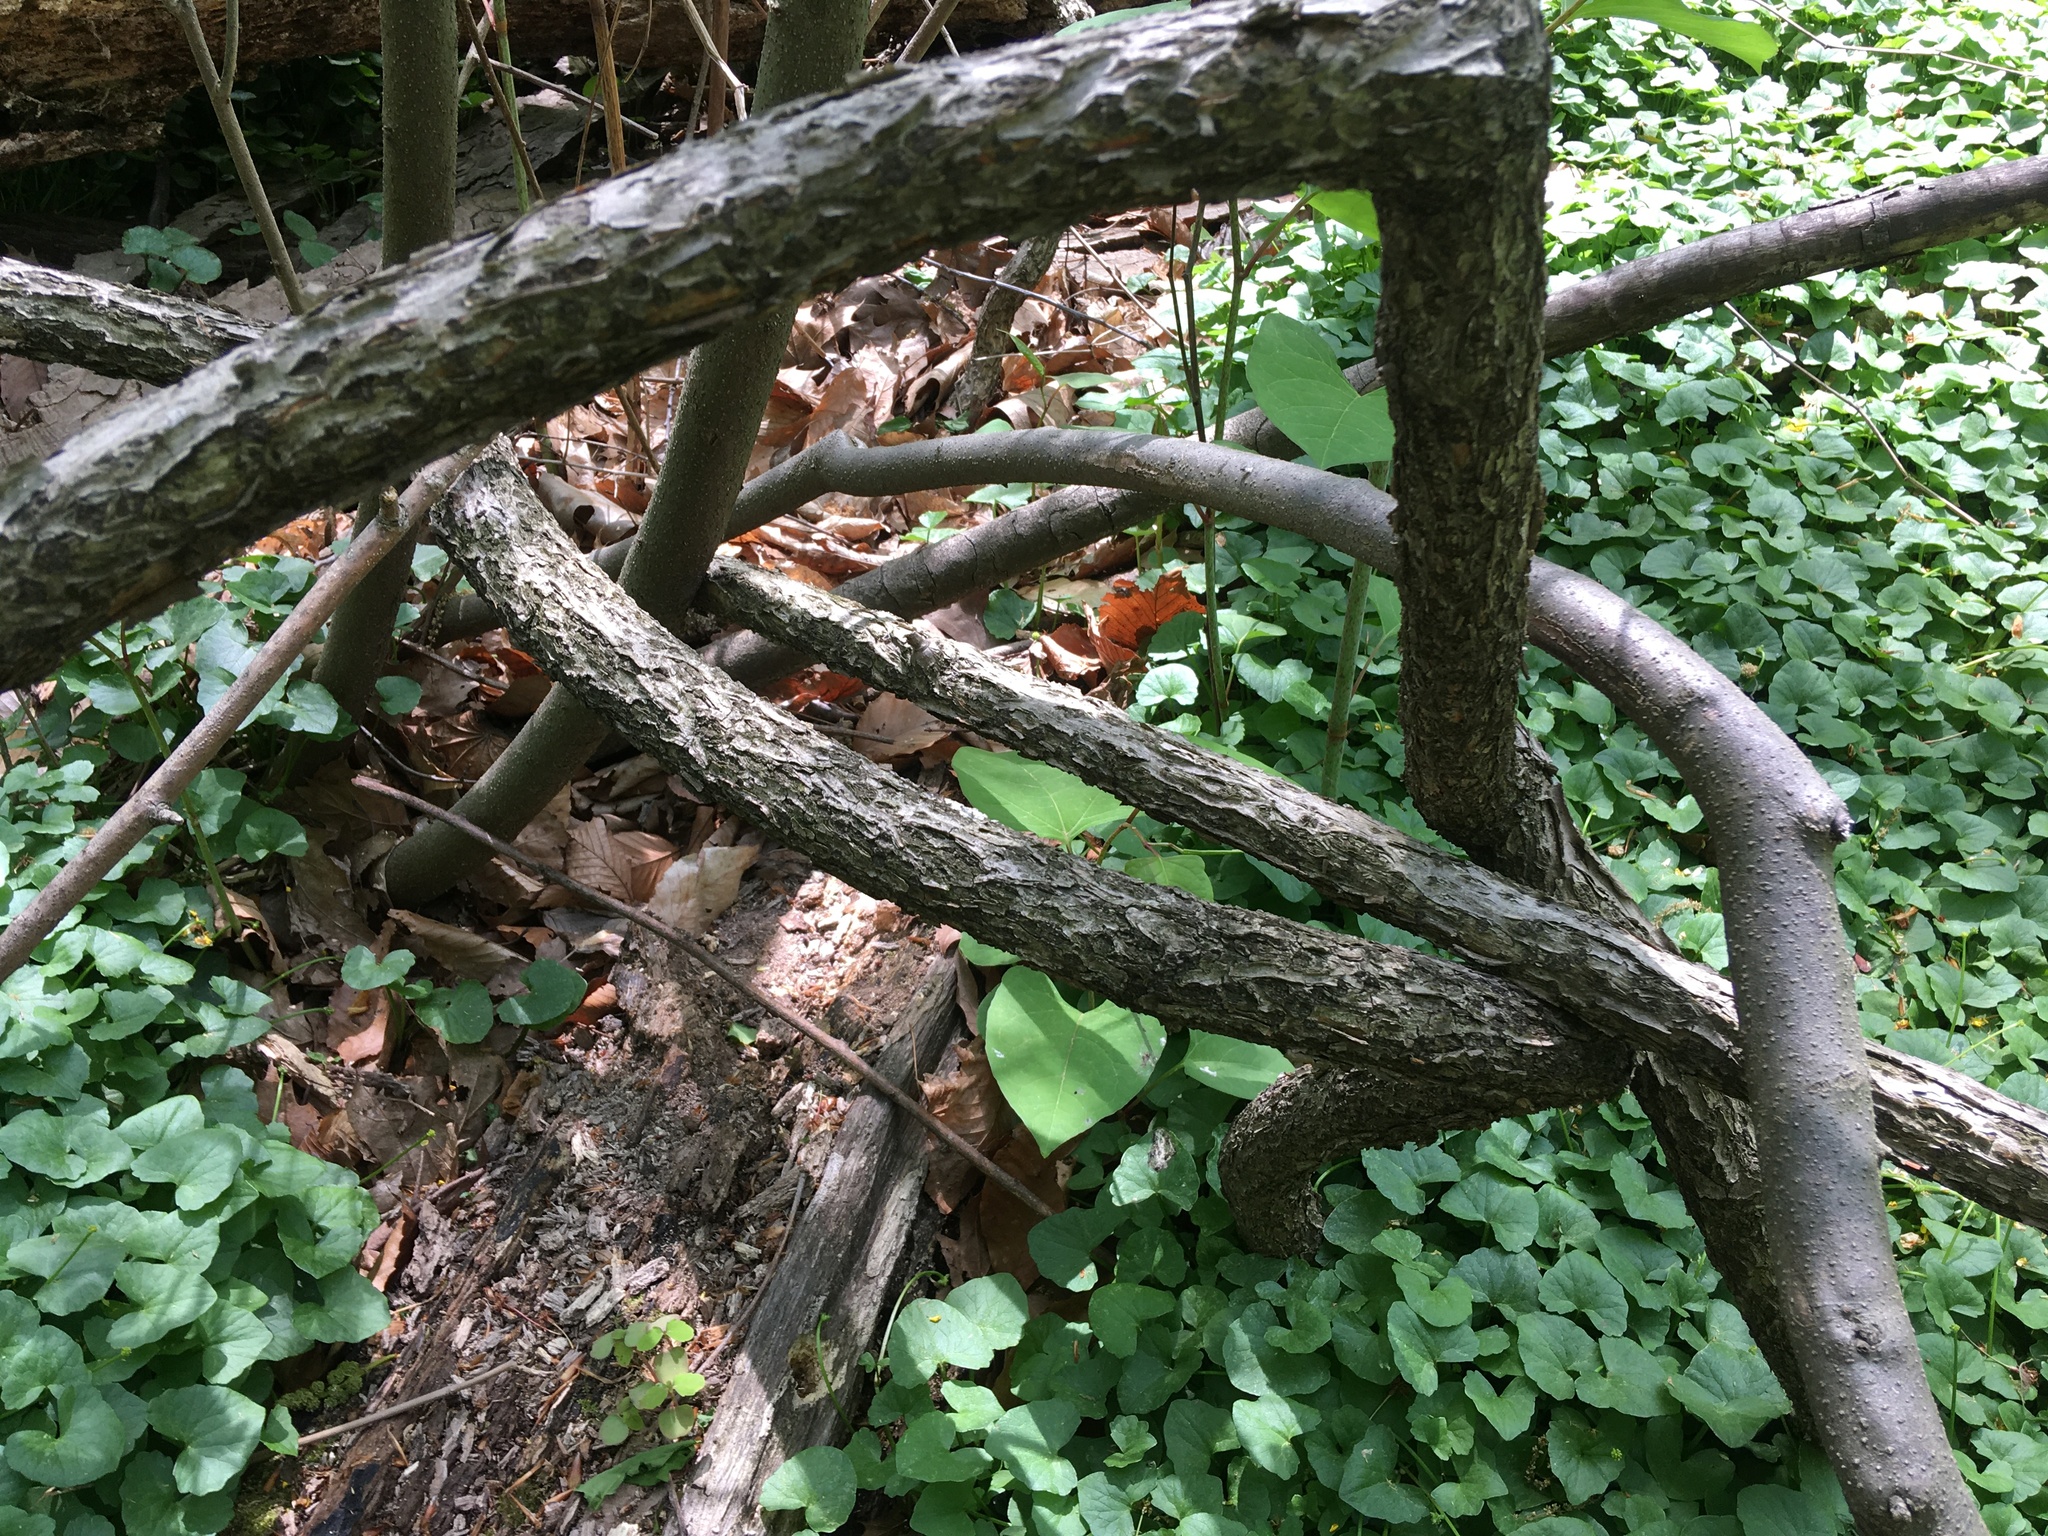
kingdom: Plantae
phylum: Tracheophyta
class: Magnoliopsida
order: Celastrales
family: Celastraceae
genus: Celastrus
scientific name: Celastrus orbiculatus
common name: Oriental bittersweet
